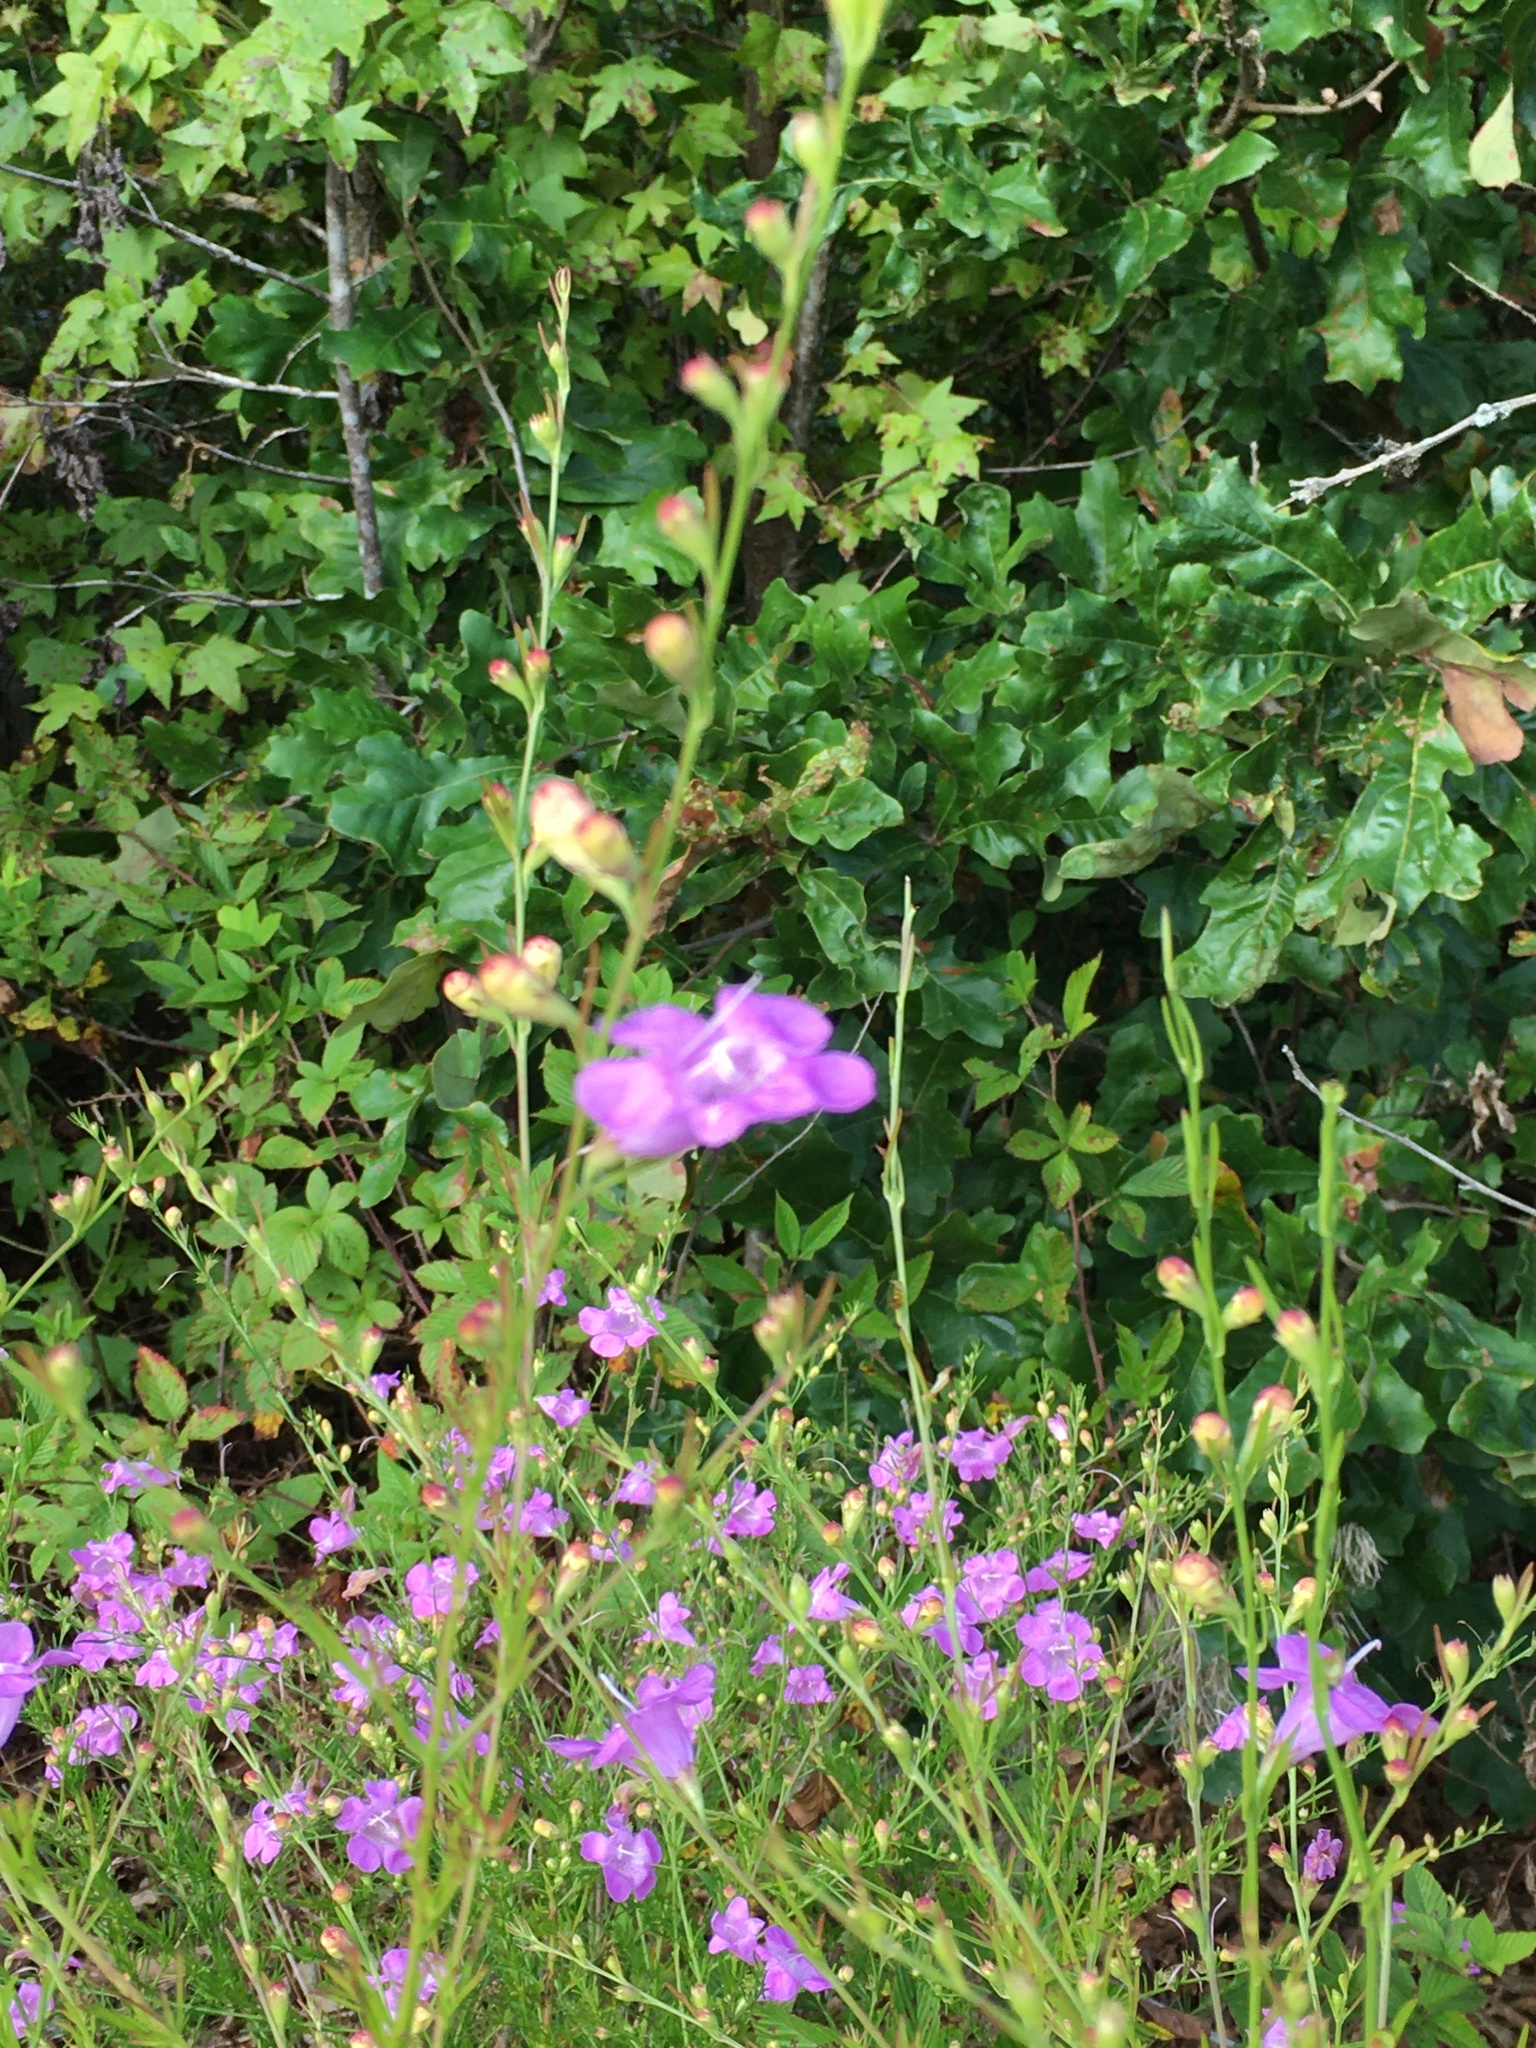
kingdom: Plantae
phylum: Tracheophyta
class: Magnoliopsida
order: Lamiales
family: Orobanchaceae
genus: Agalinis
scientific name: Agalinis fasciculata
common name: Beach false foxglove
